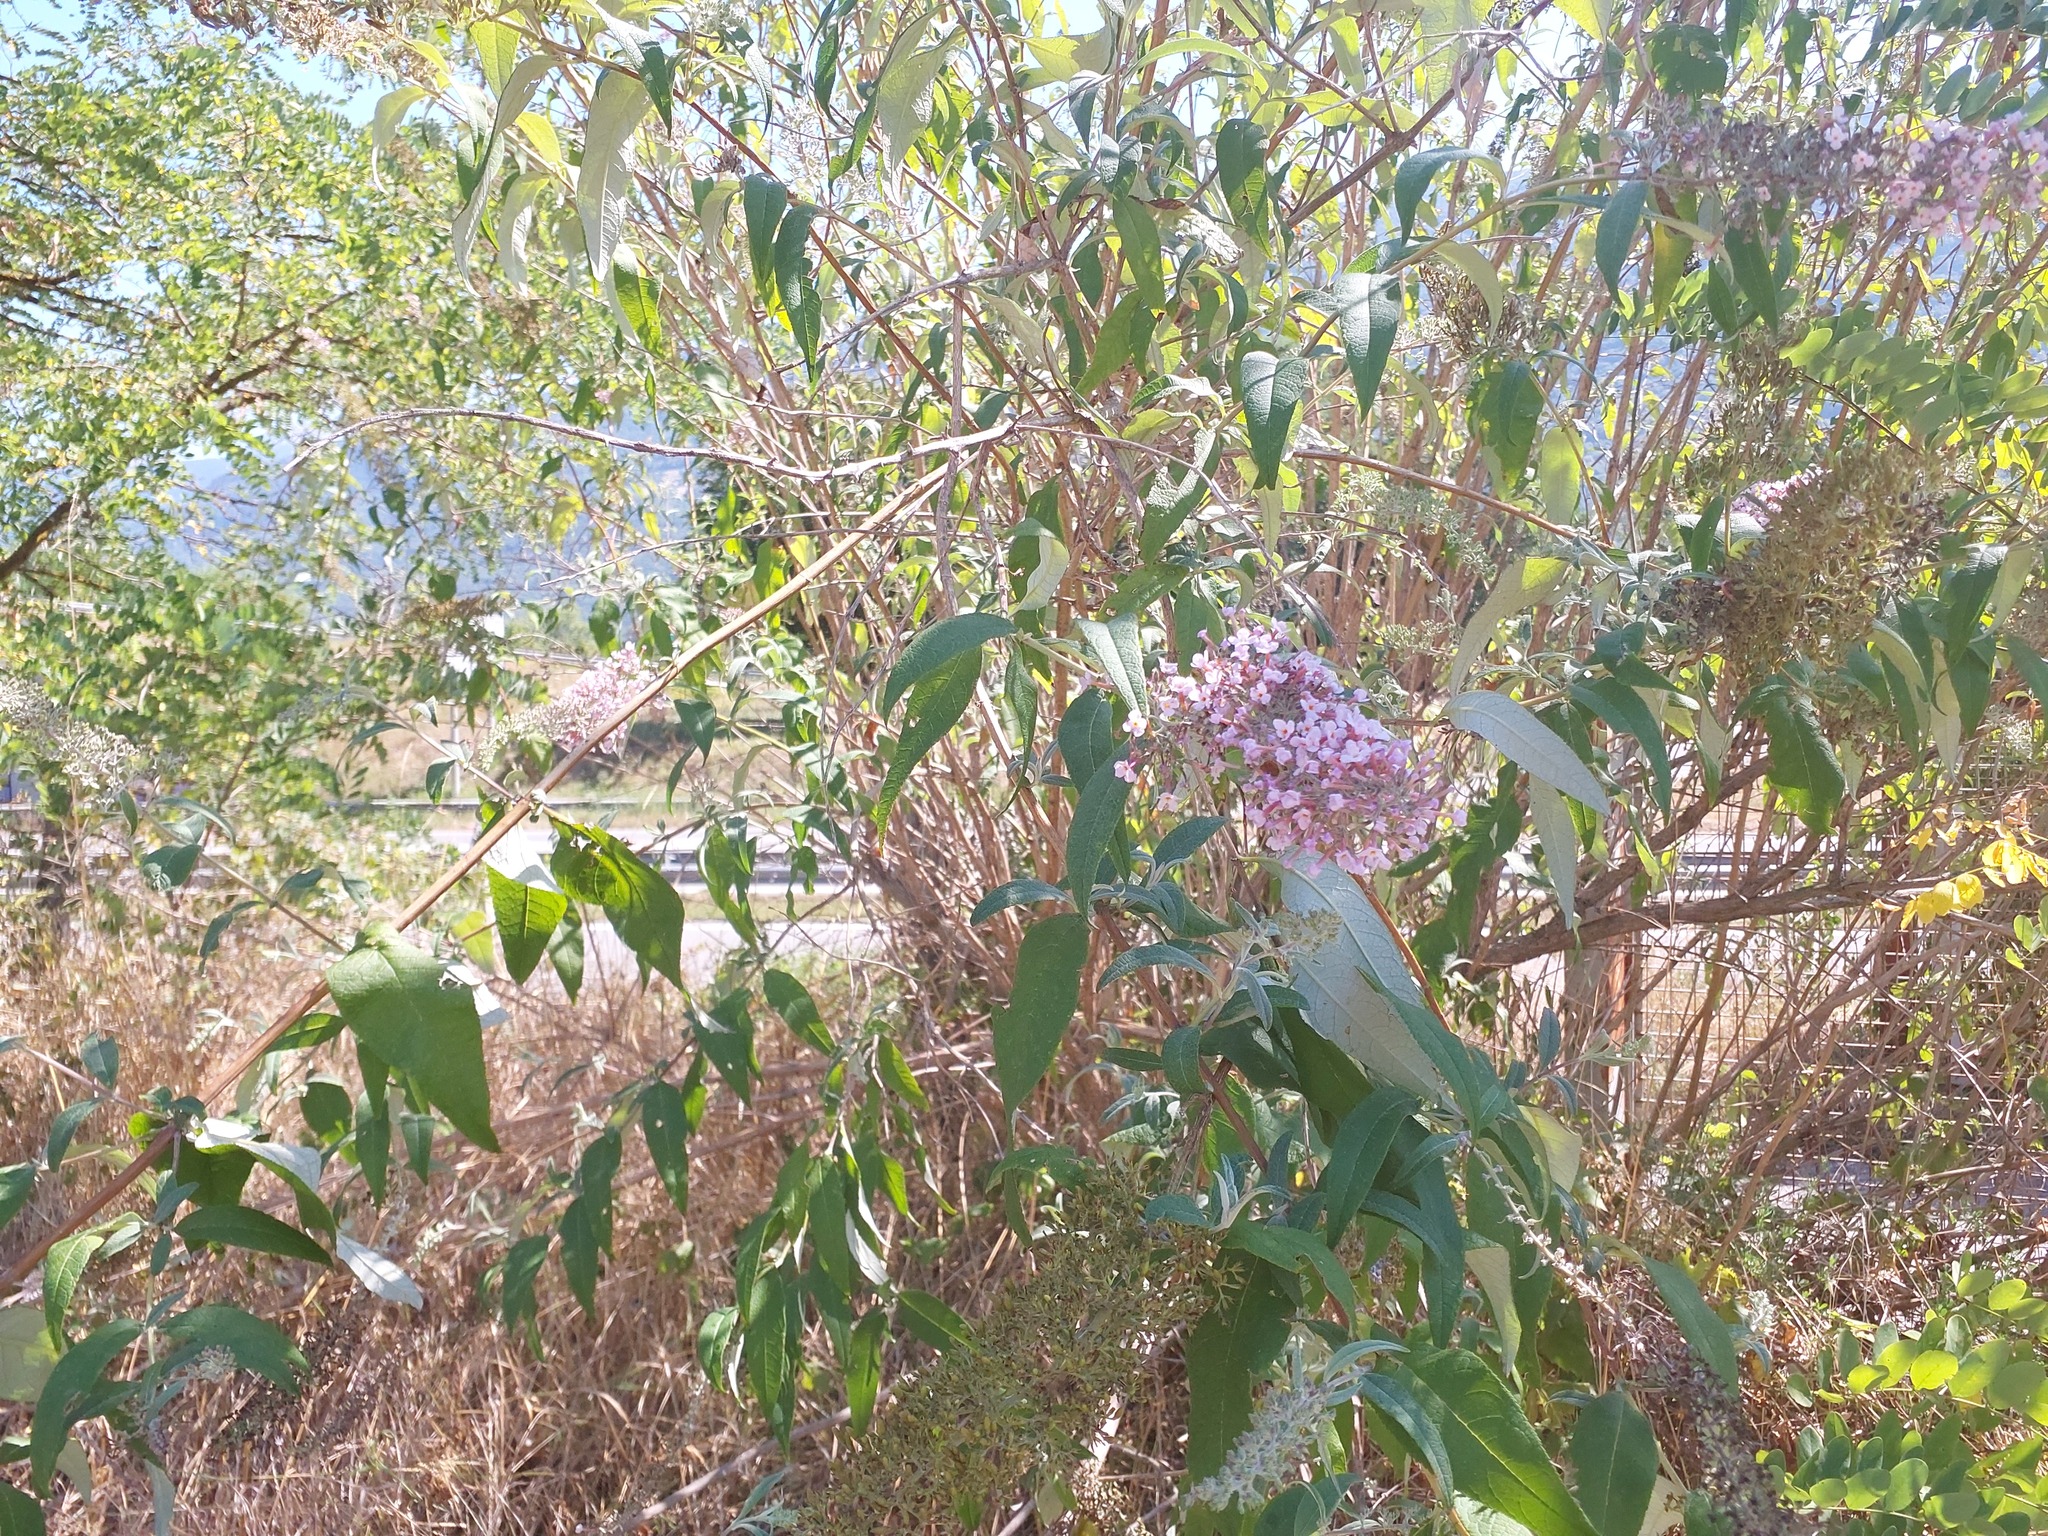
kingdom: Plantae
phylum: Tracheophyta
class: Magnoliopsida
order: Lamiales
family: Scrophulariaceae
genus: Buddleja
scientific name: Buddleja davidii
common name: Butterfly-bush
